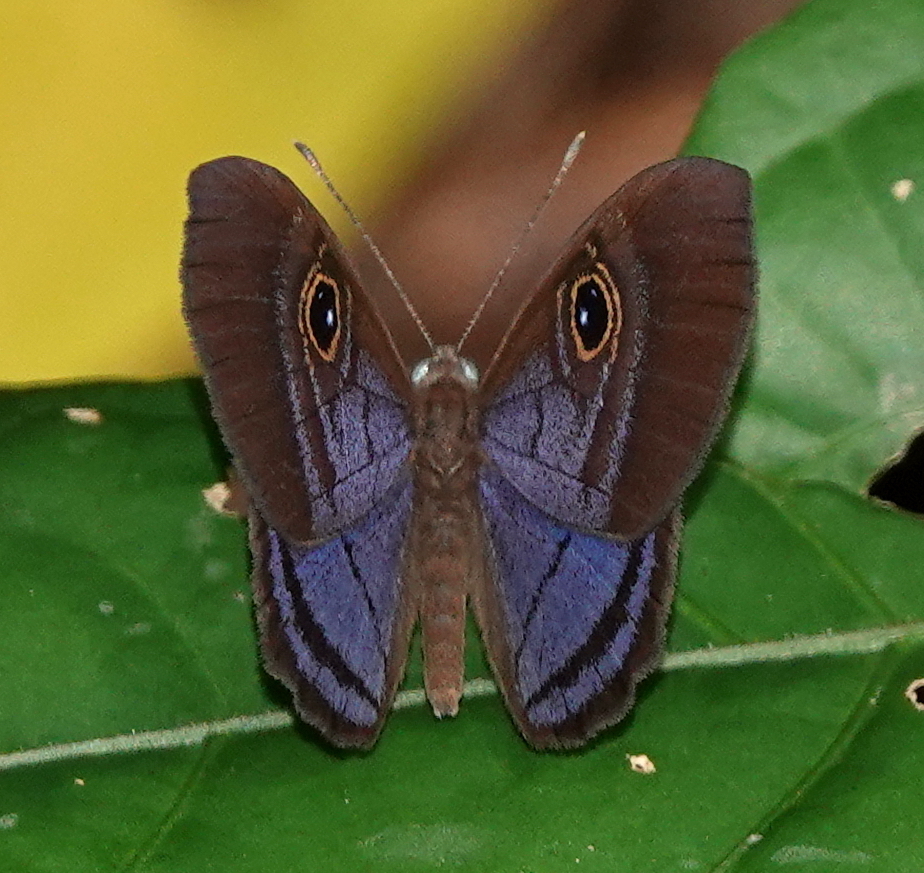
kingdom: Animalia
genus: Mesosemia
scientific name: Mesosemia lamachus
